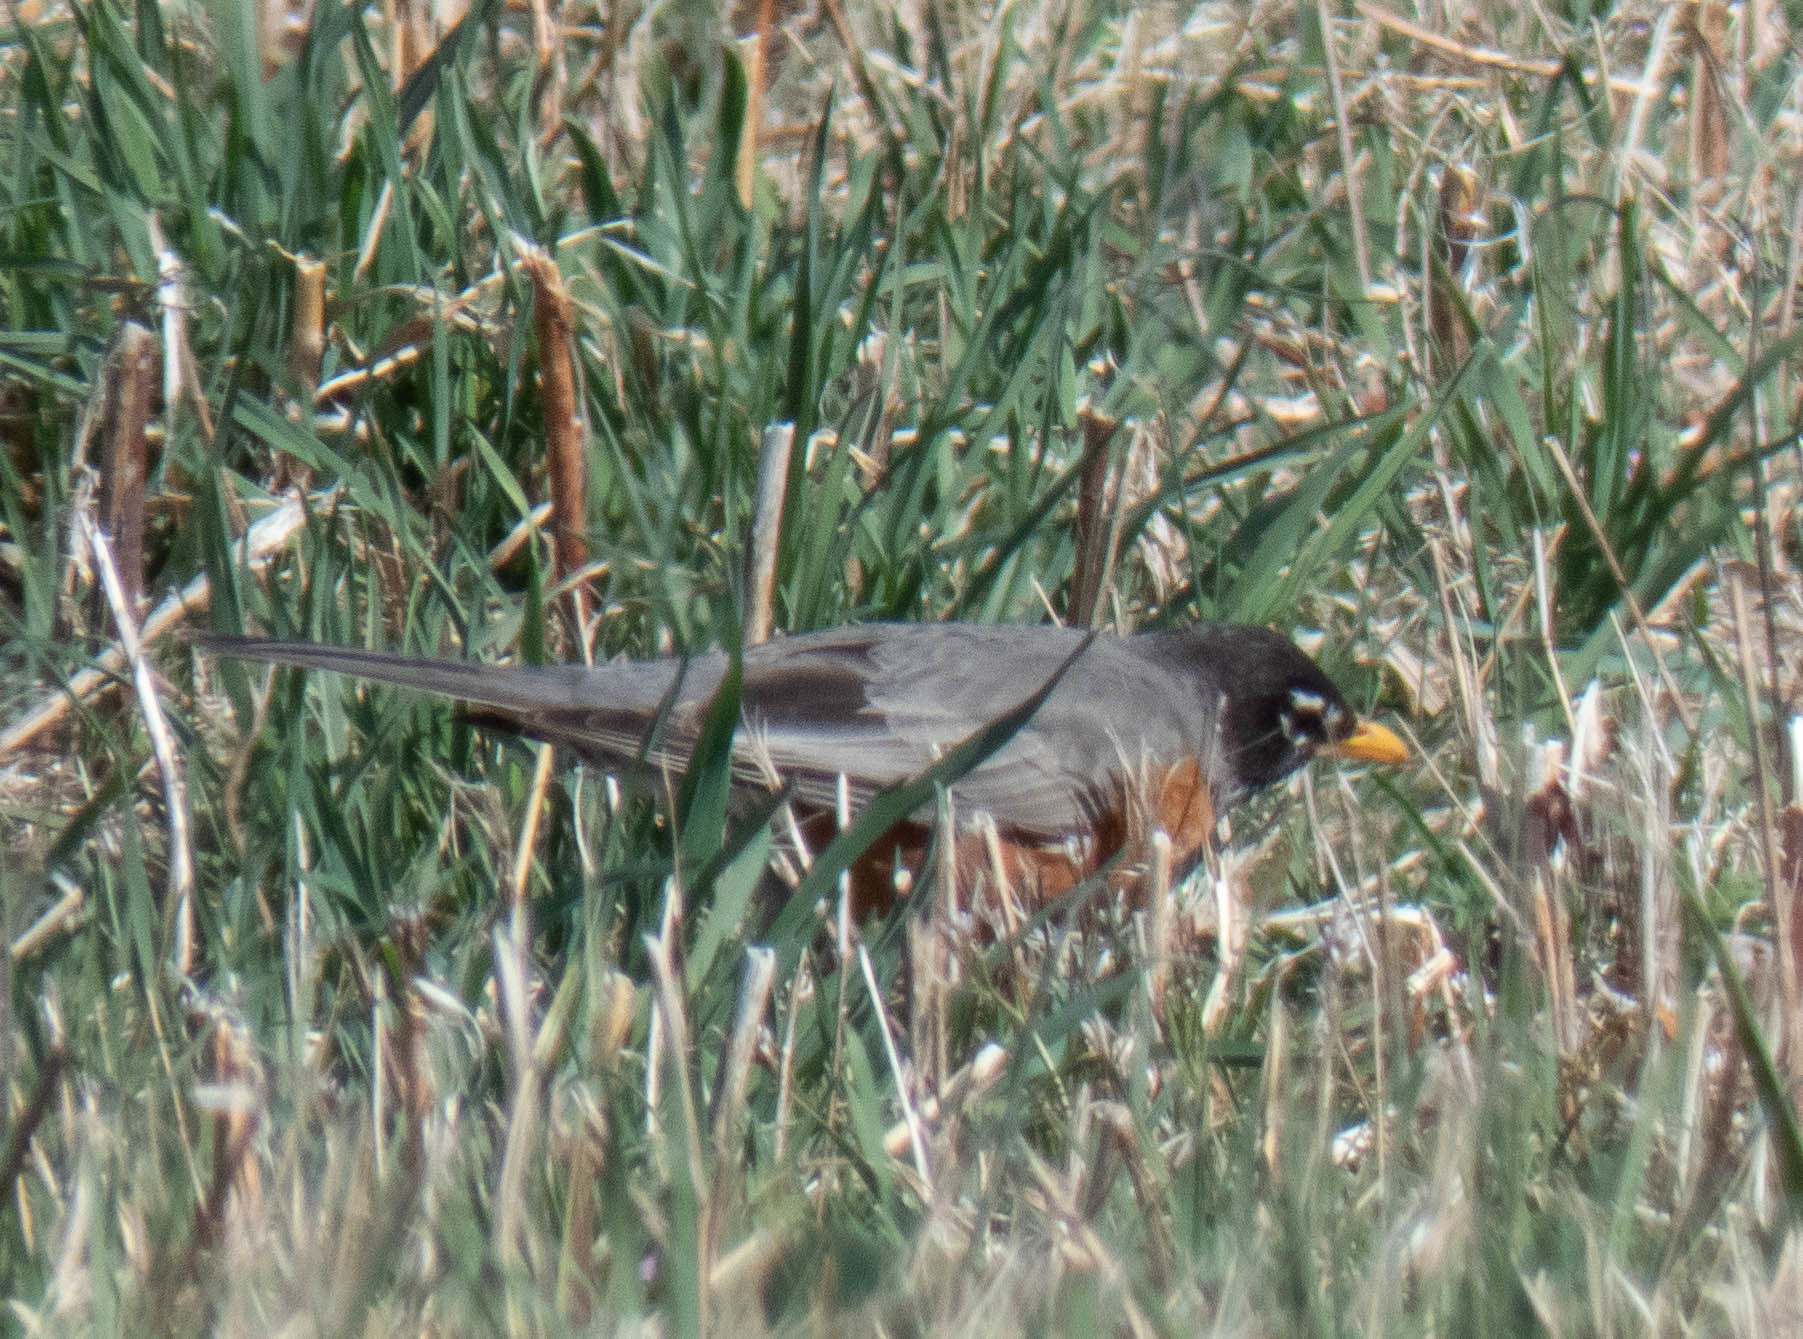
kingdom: Animalia
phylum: Chordata
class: Aves
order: Passeriformes
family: Turdidae
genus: Turdus
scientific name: Turdus migratorius
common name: American robin
